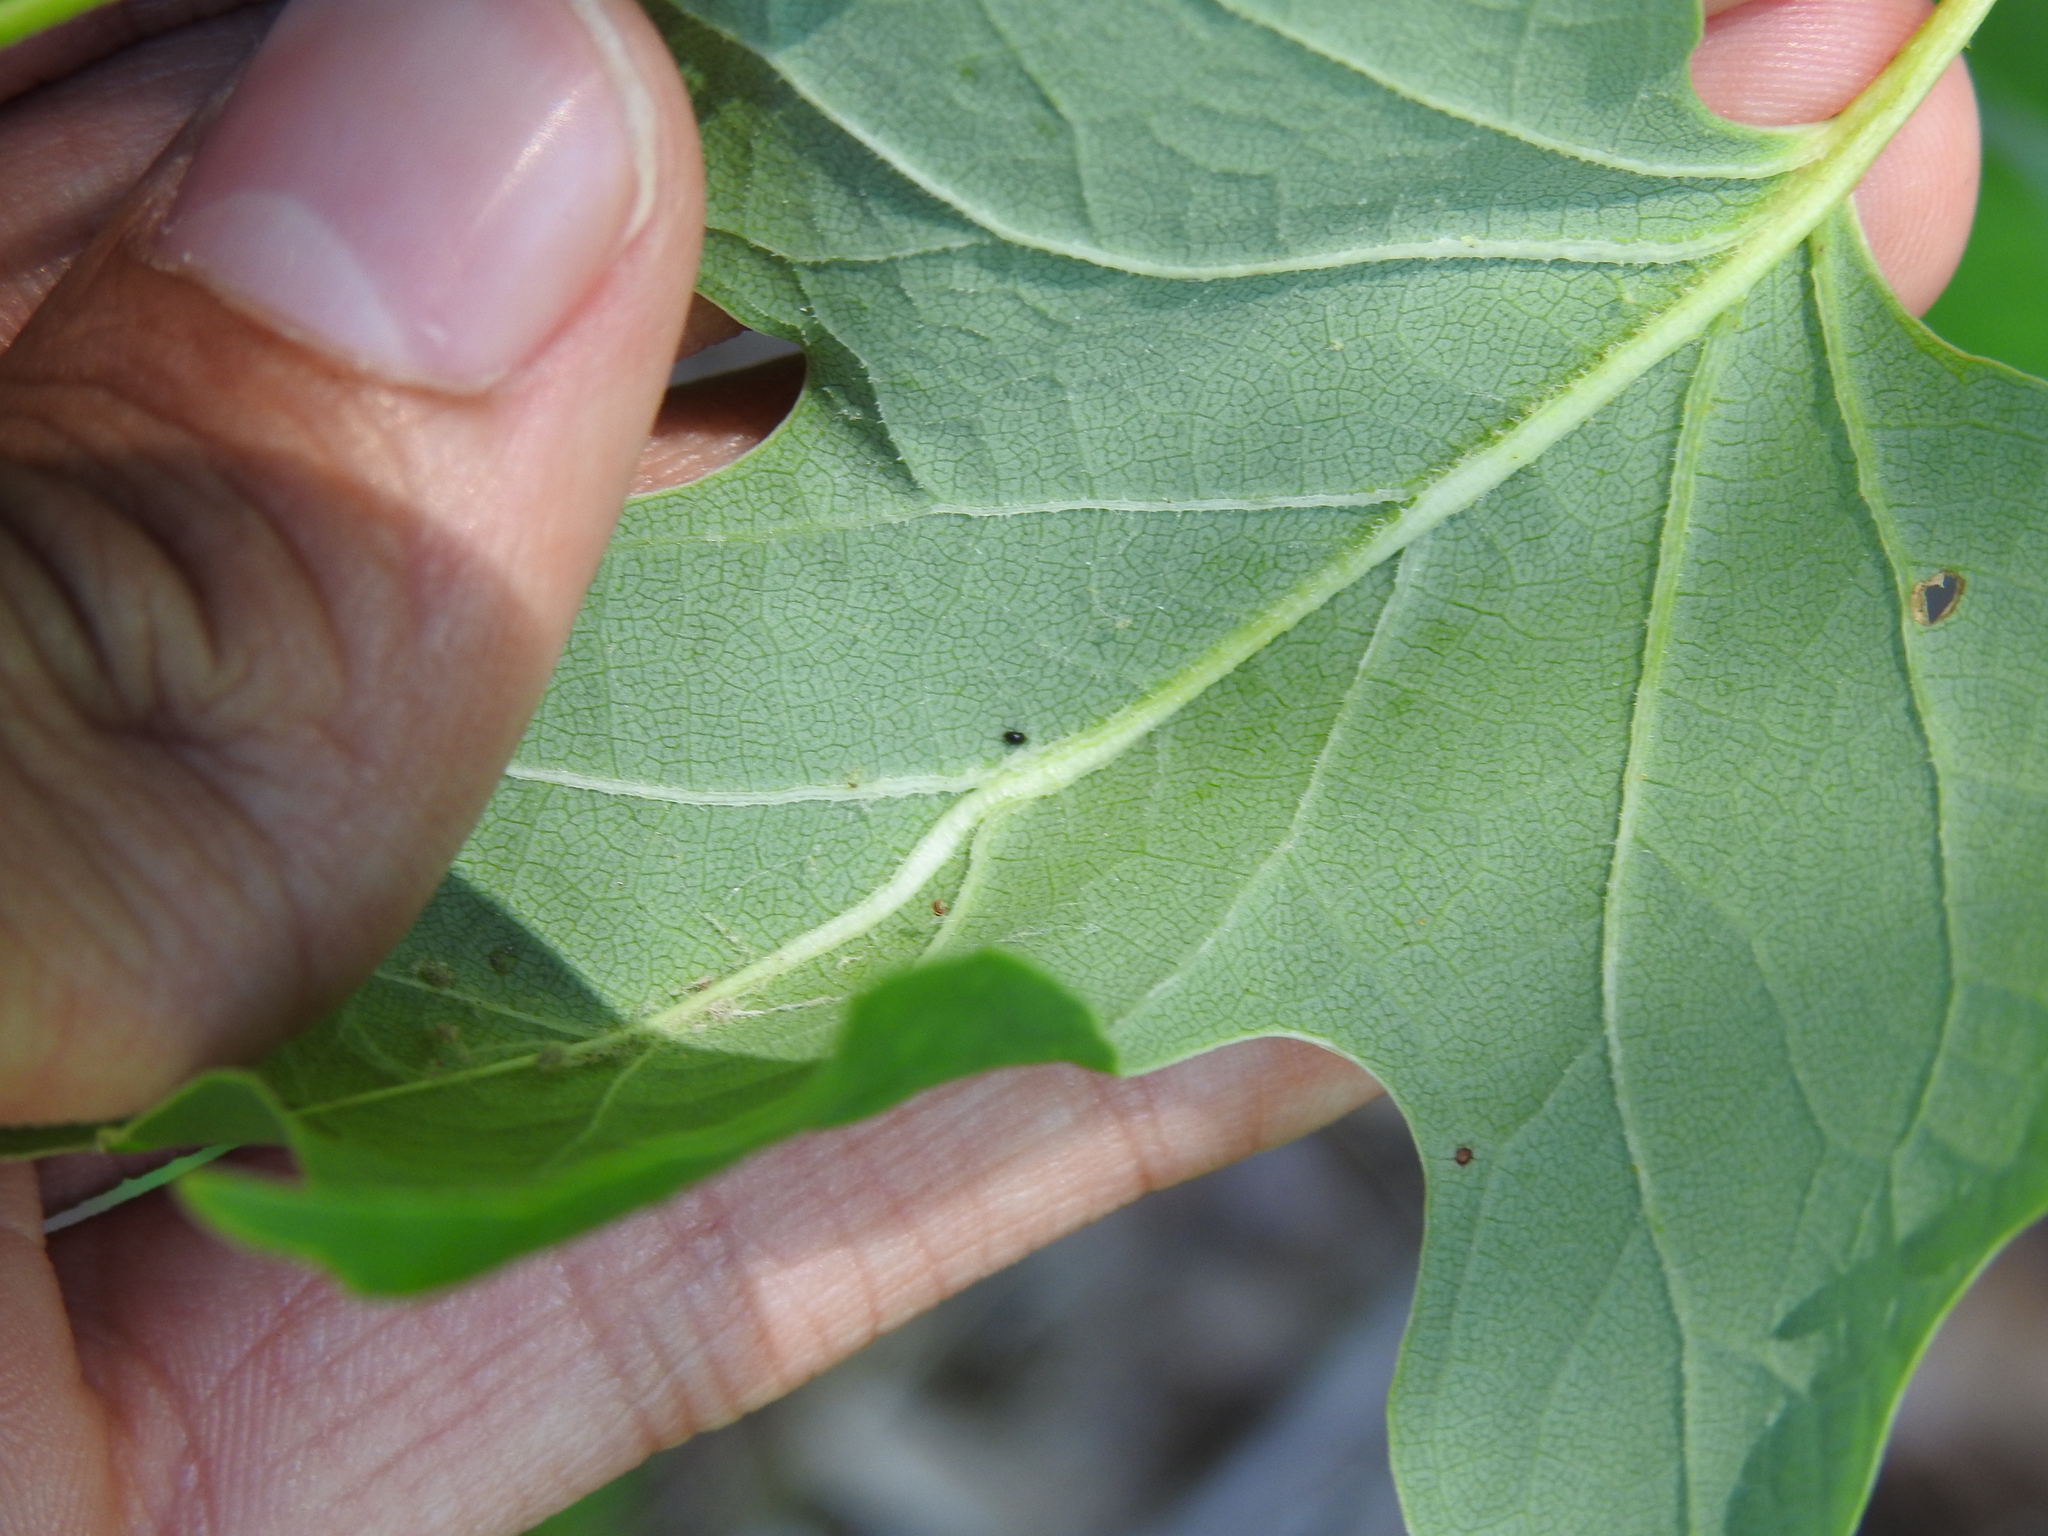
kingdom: Animalia
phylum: Arthropoda
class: Insecta
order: Diptera
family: Cecidomyiidae
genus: Resseliella
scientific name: Resseliella tulipiferae
